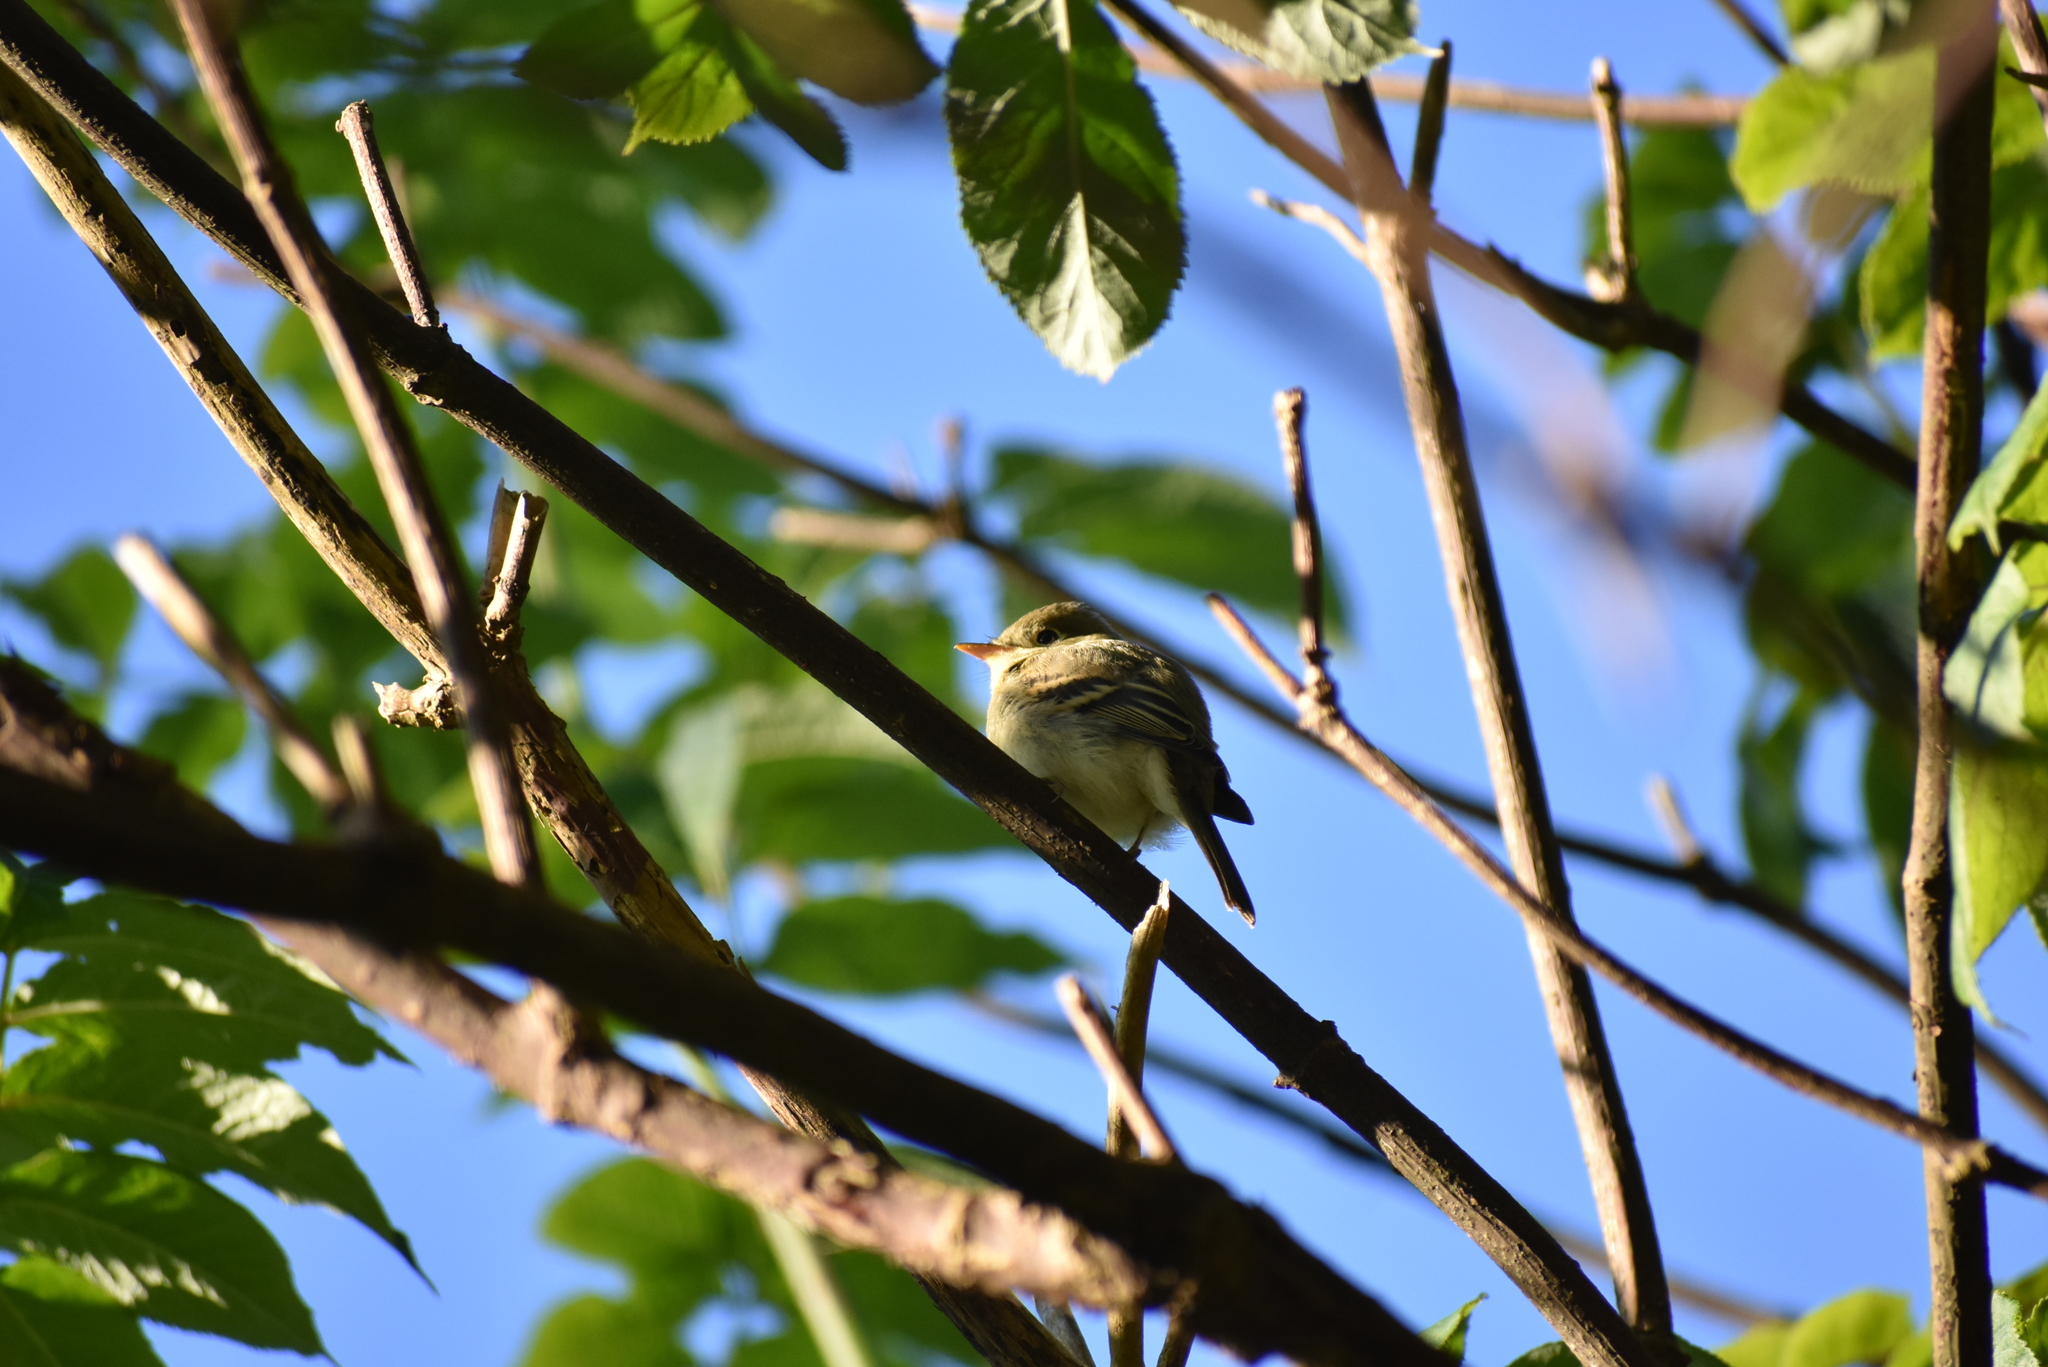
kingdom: Animalia
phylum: Chordata
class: Aves
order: Passeriformes
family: Tyrannidae
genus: Empidonax
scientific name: Empidonax difficilis
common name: Pacific-slope flycatcher
